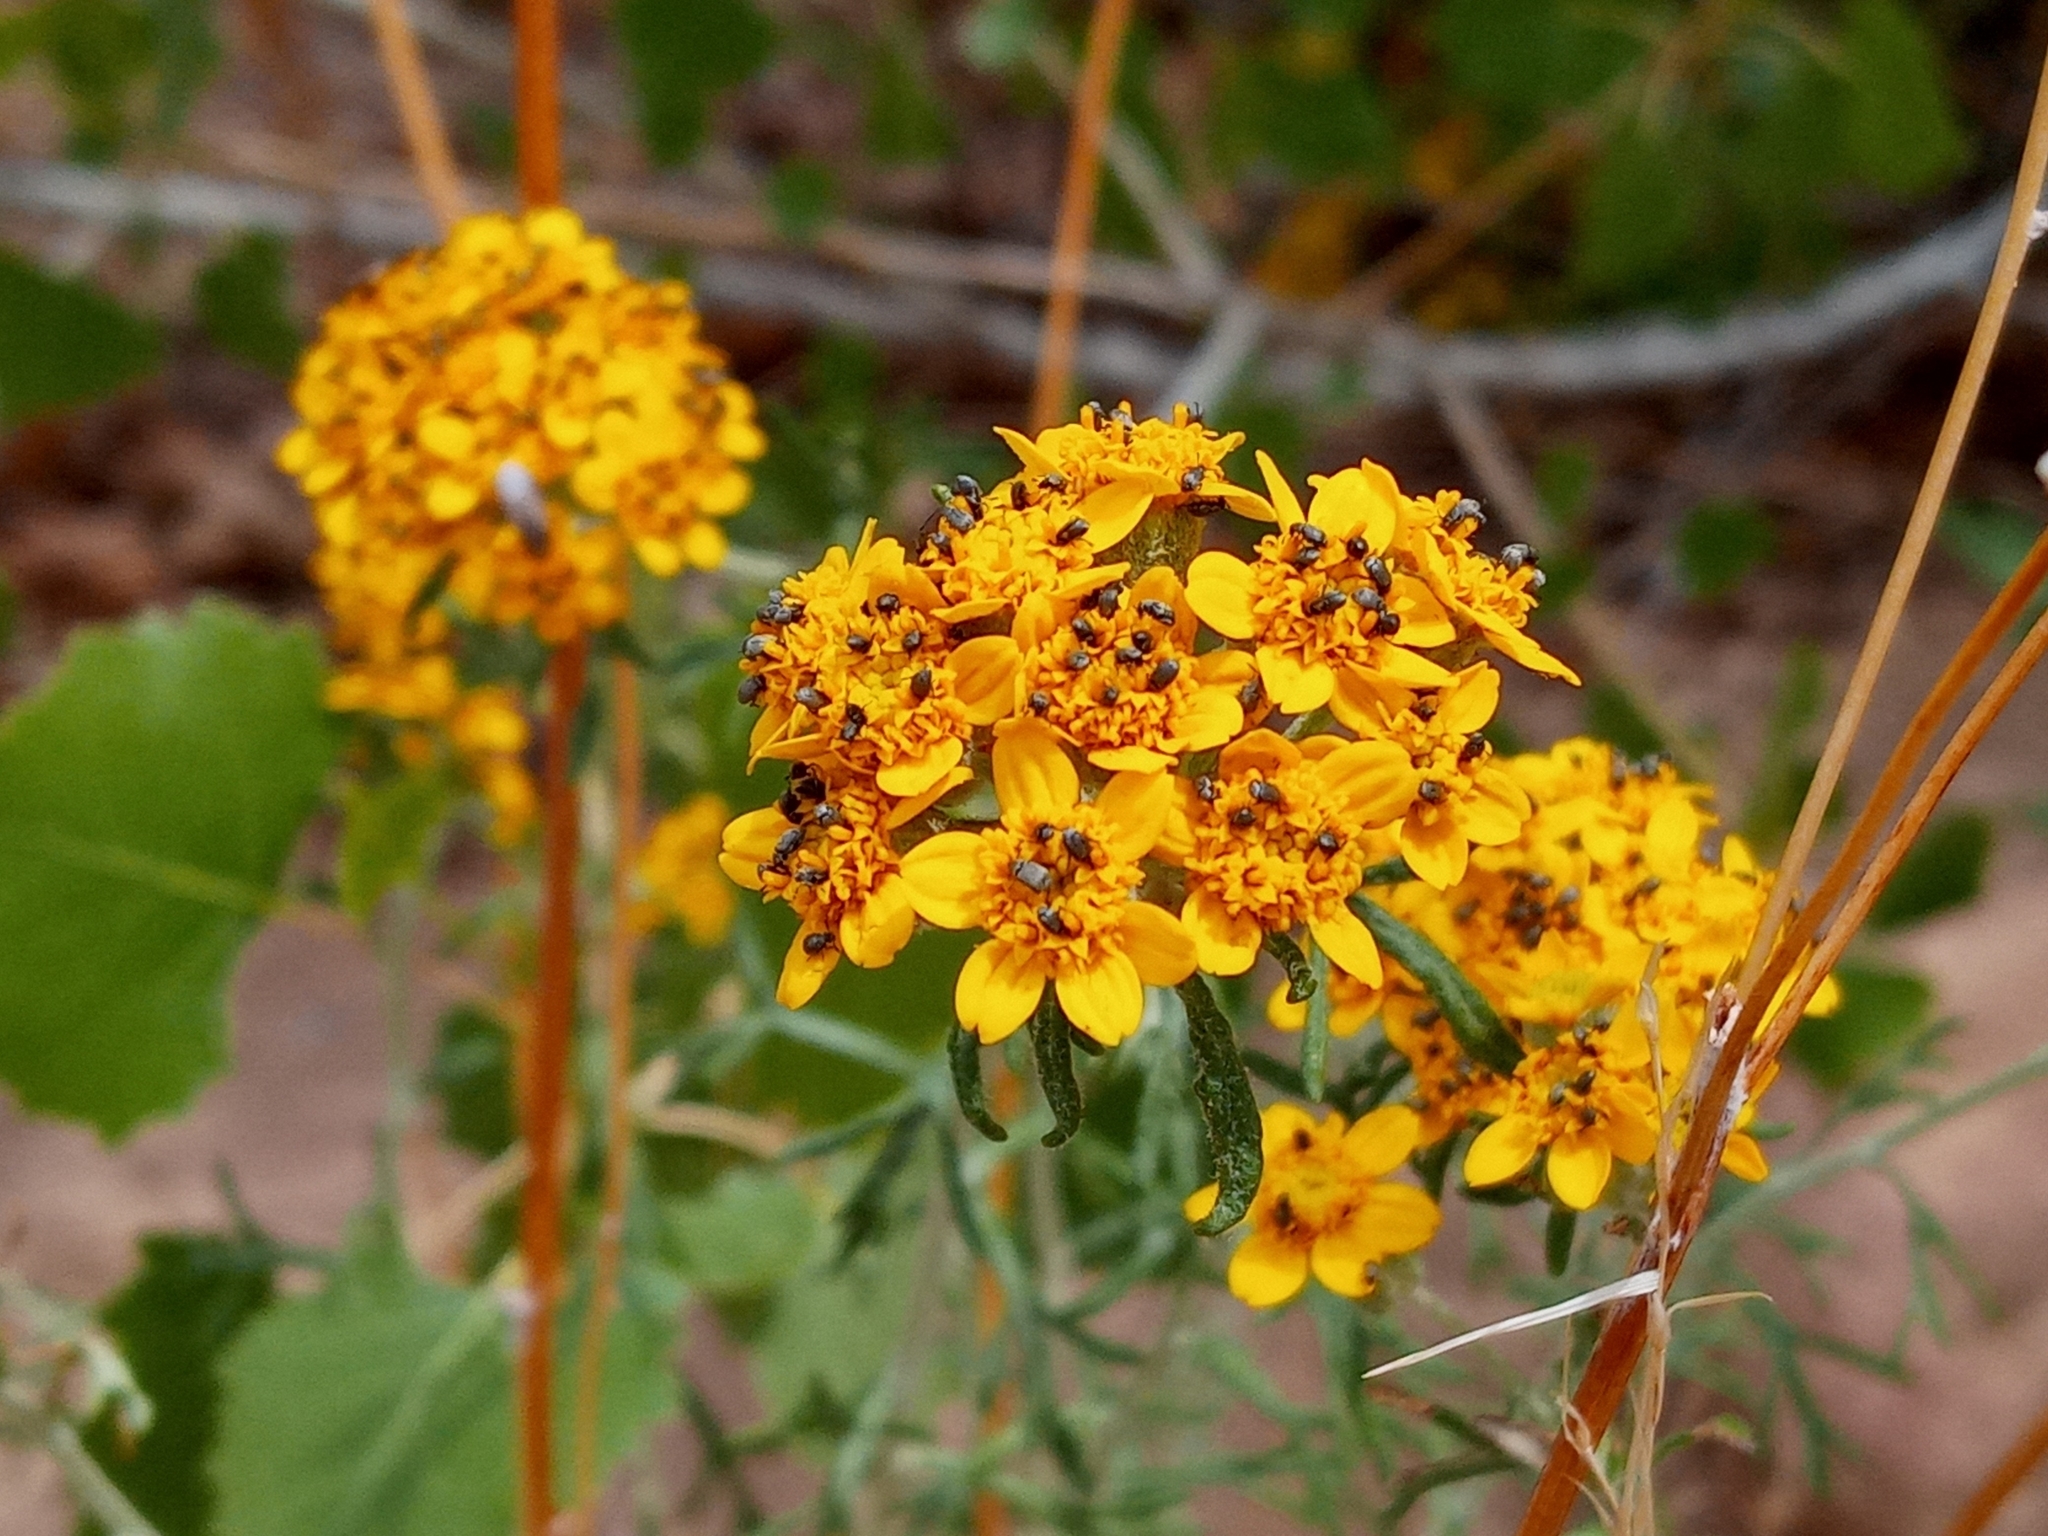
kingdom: Plantae
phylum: Tracheophyta
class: Magnoliopsida
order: Asterales
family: Asteraceae
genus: Eriophyllum
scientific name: Eriophyllum confertiflorum
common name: Golden-yarrow
